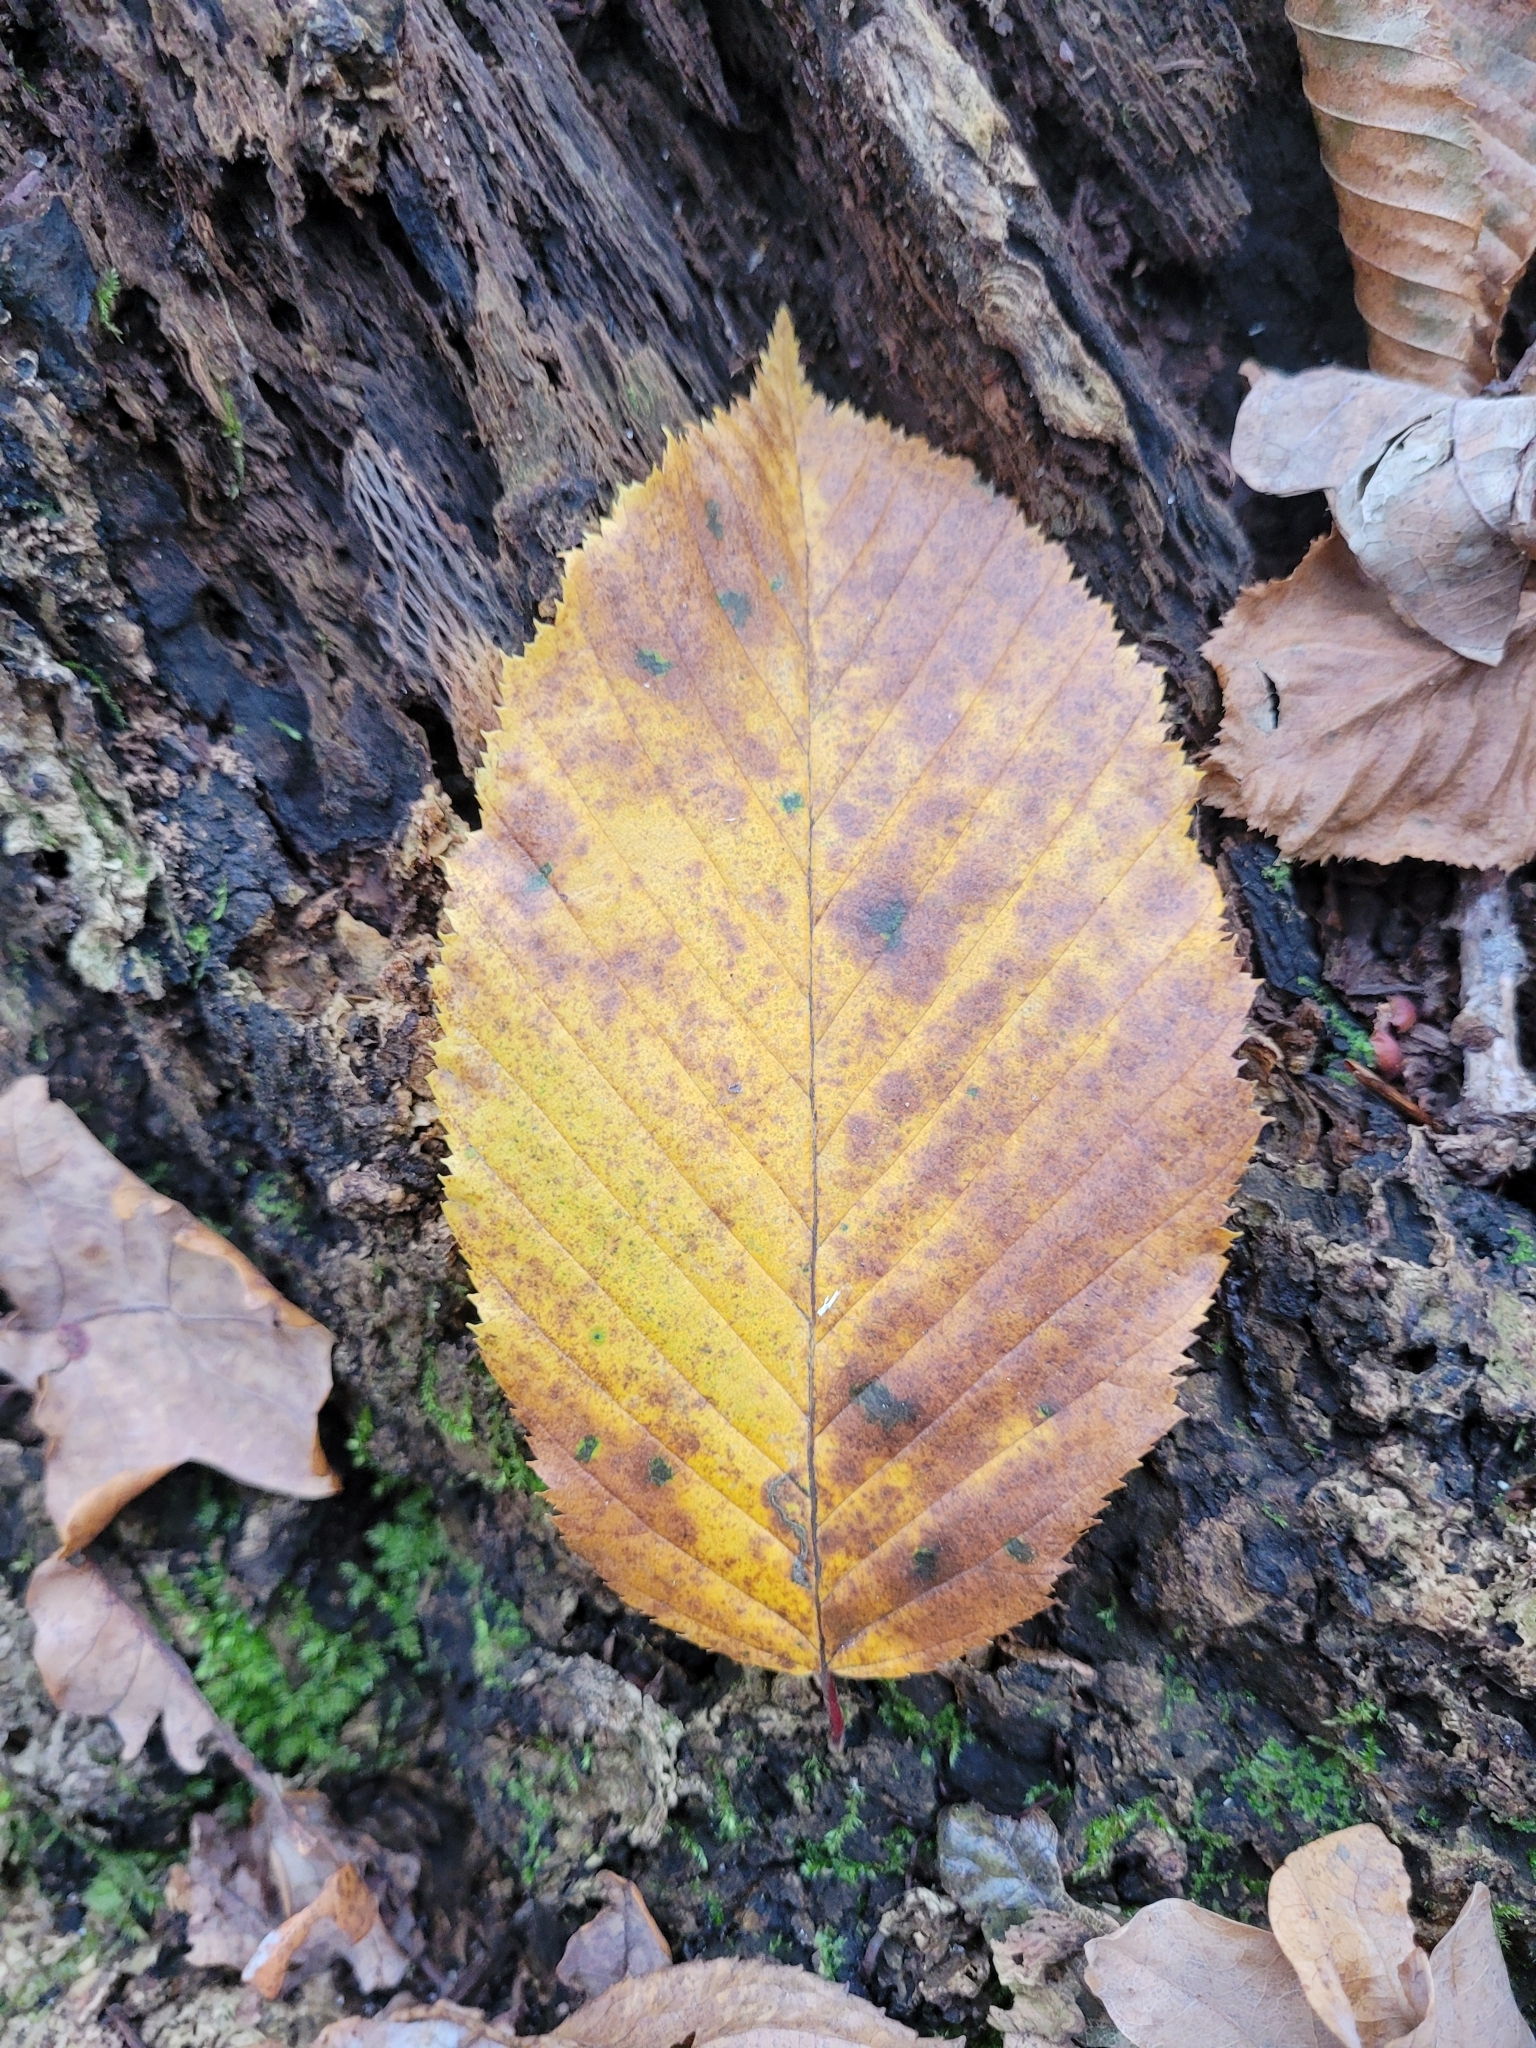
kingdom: Plantae
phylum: Tracheophyta
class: Magnoliopsida
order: Fagales
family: Betulaceae
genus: Carpinus
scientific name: Carpinus betulus
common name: Hornbeam
